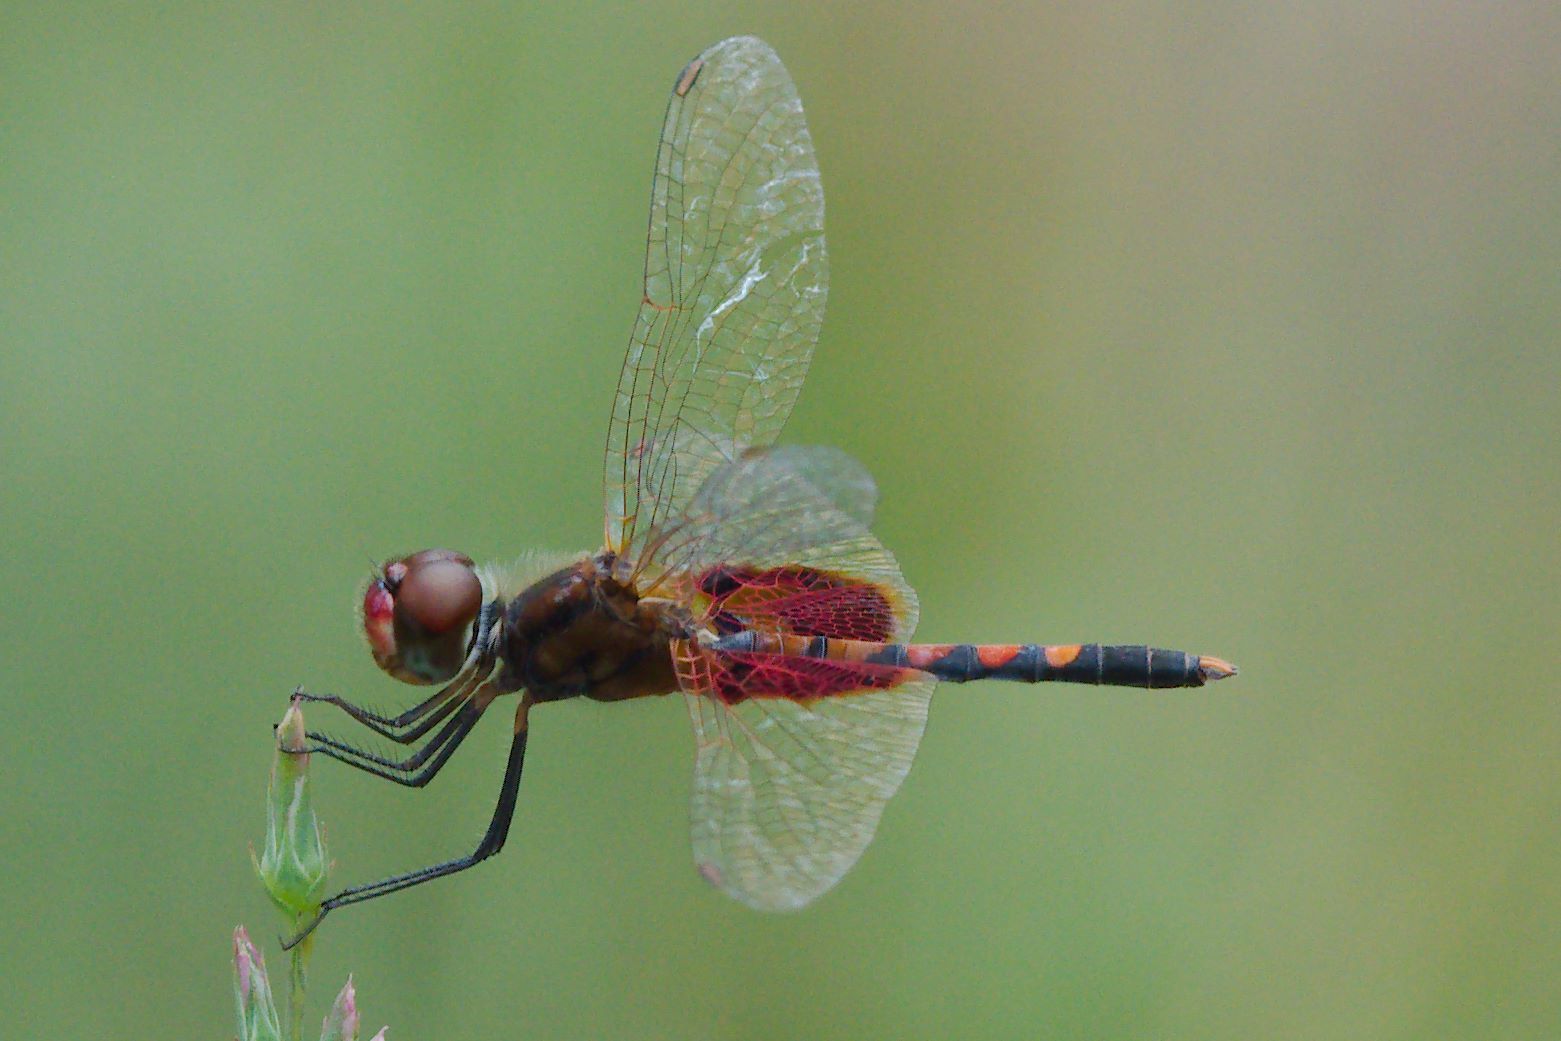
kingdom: Animalia
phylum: Arthropoda
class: Insecta
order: Odonata
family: Libellulidae
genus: Celithemis
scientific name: Celithemis amanda
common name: Amanda's pennant
